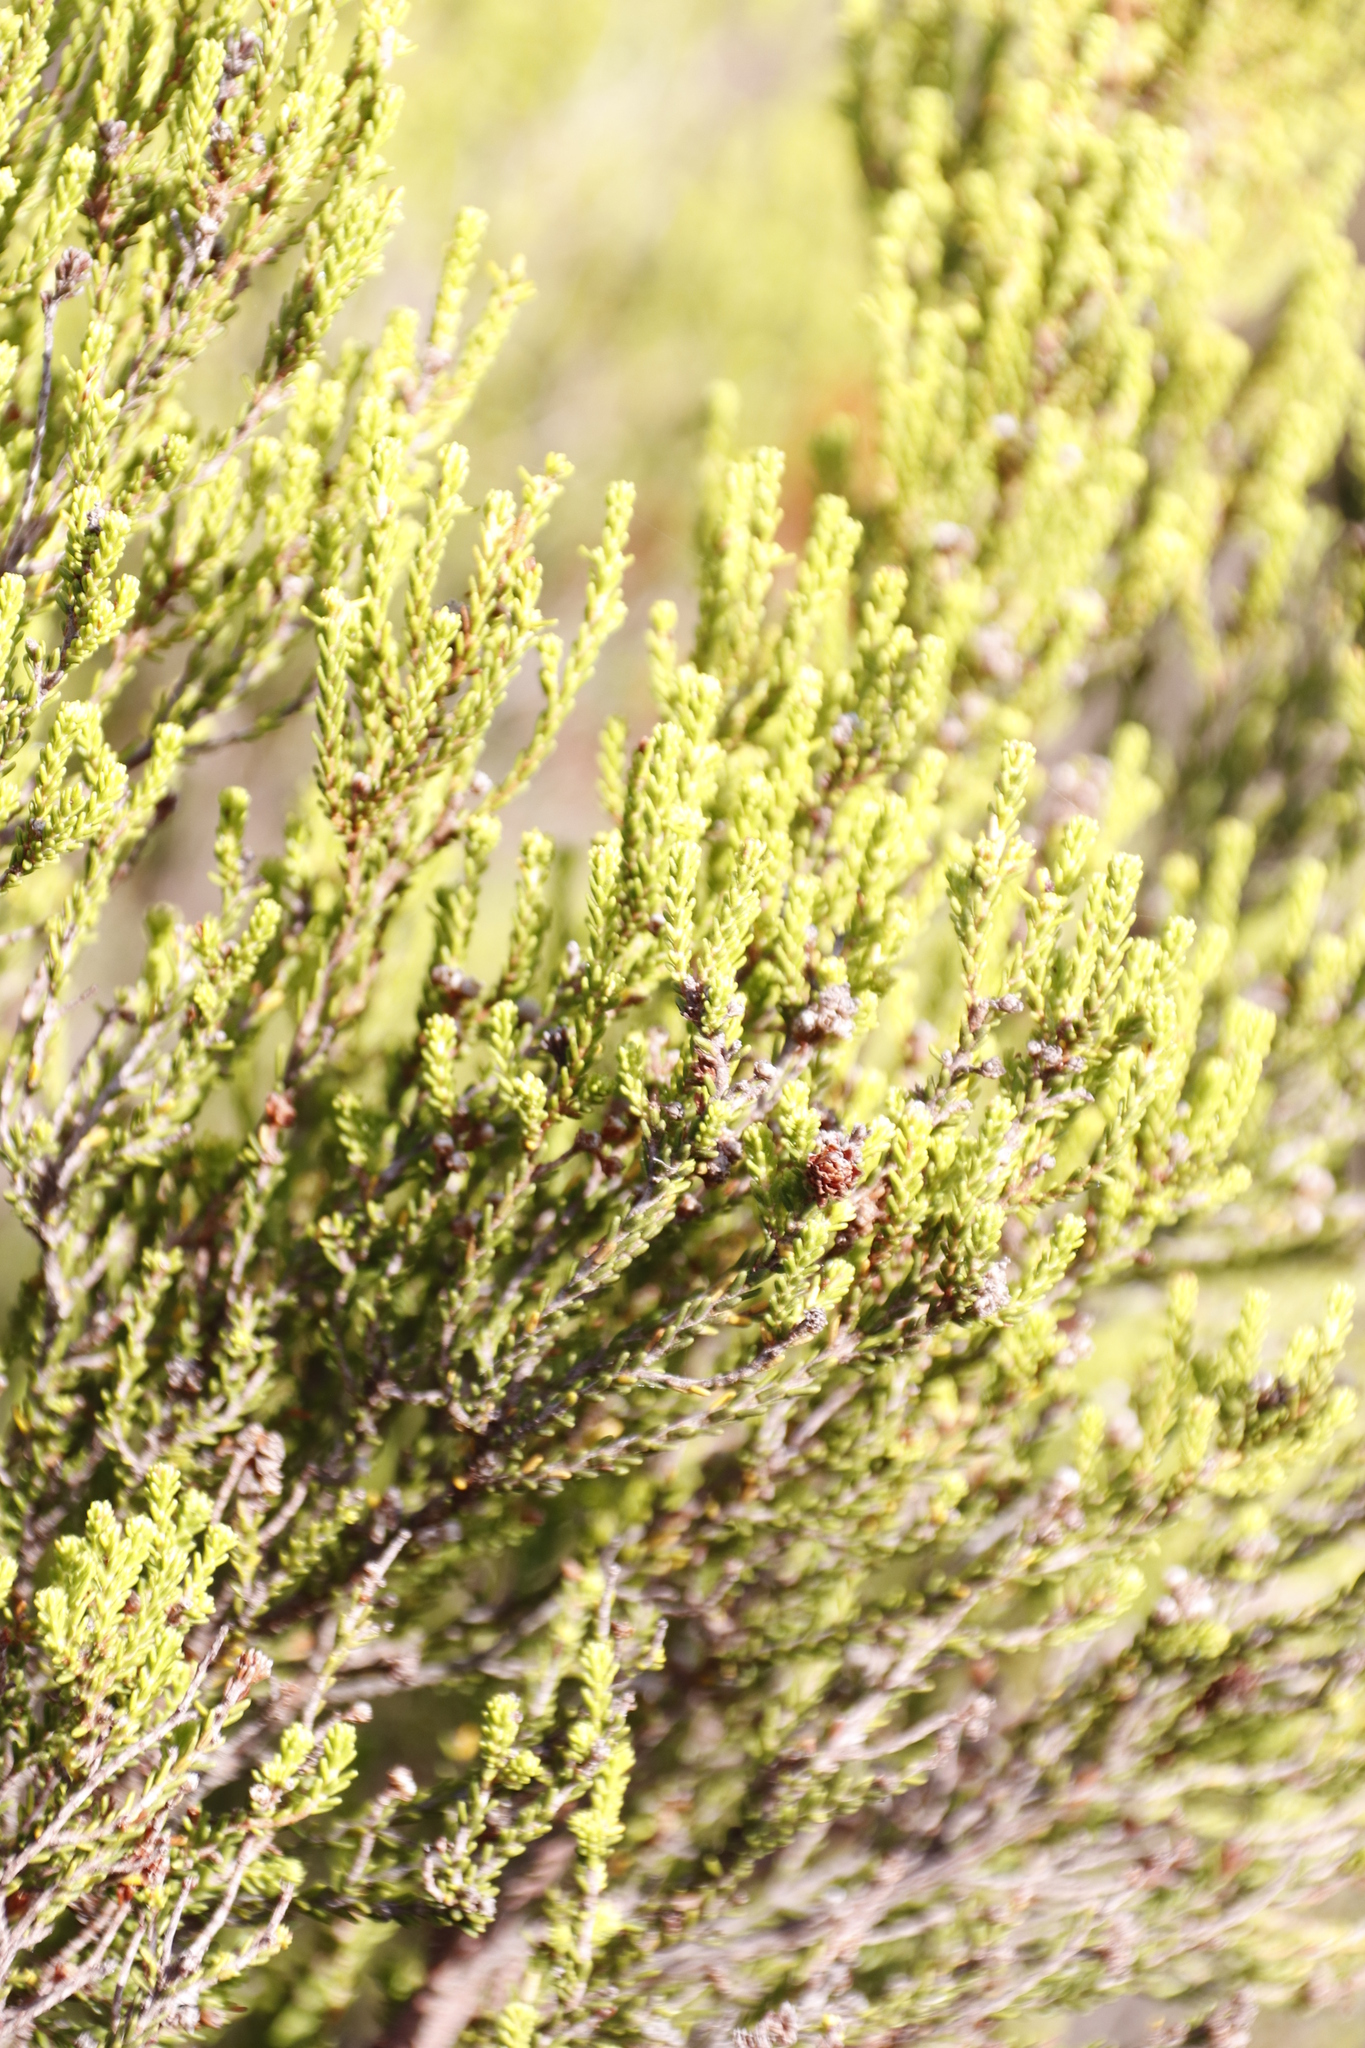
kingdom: Plantae
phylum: Tracheophyta
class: Magnoliopsida
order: Ericales
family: Ericaceae
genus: Erica
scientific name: Erica tristis
